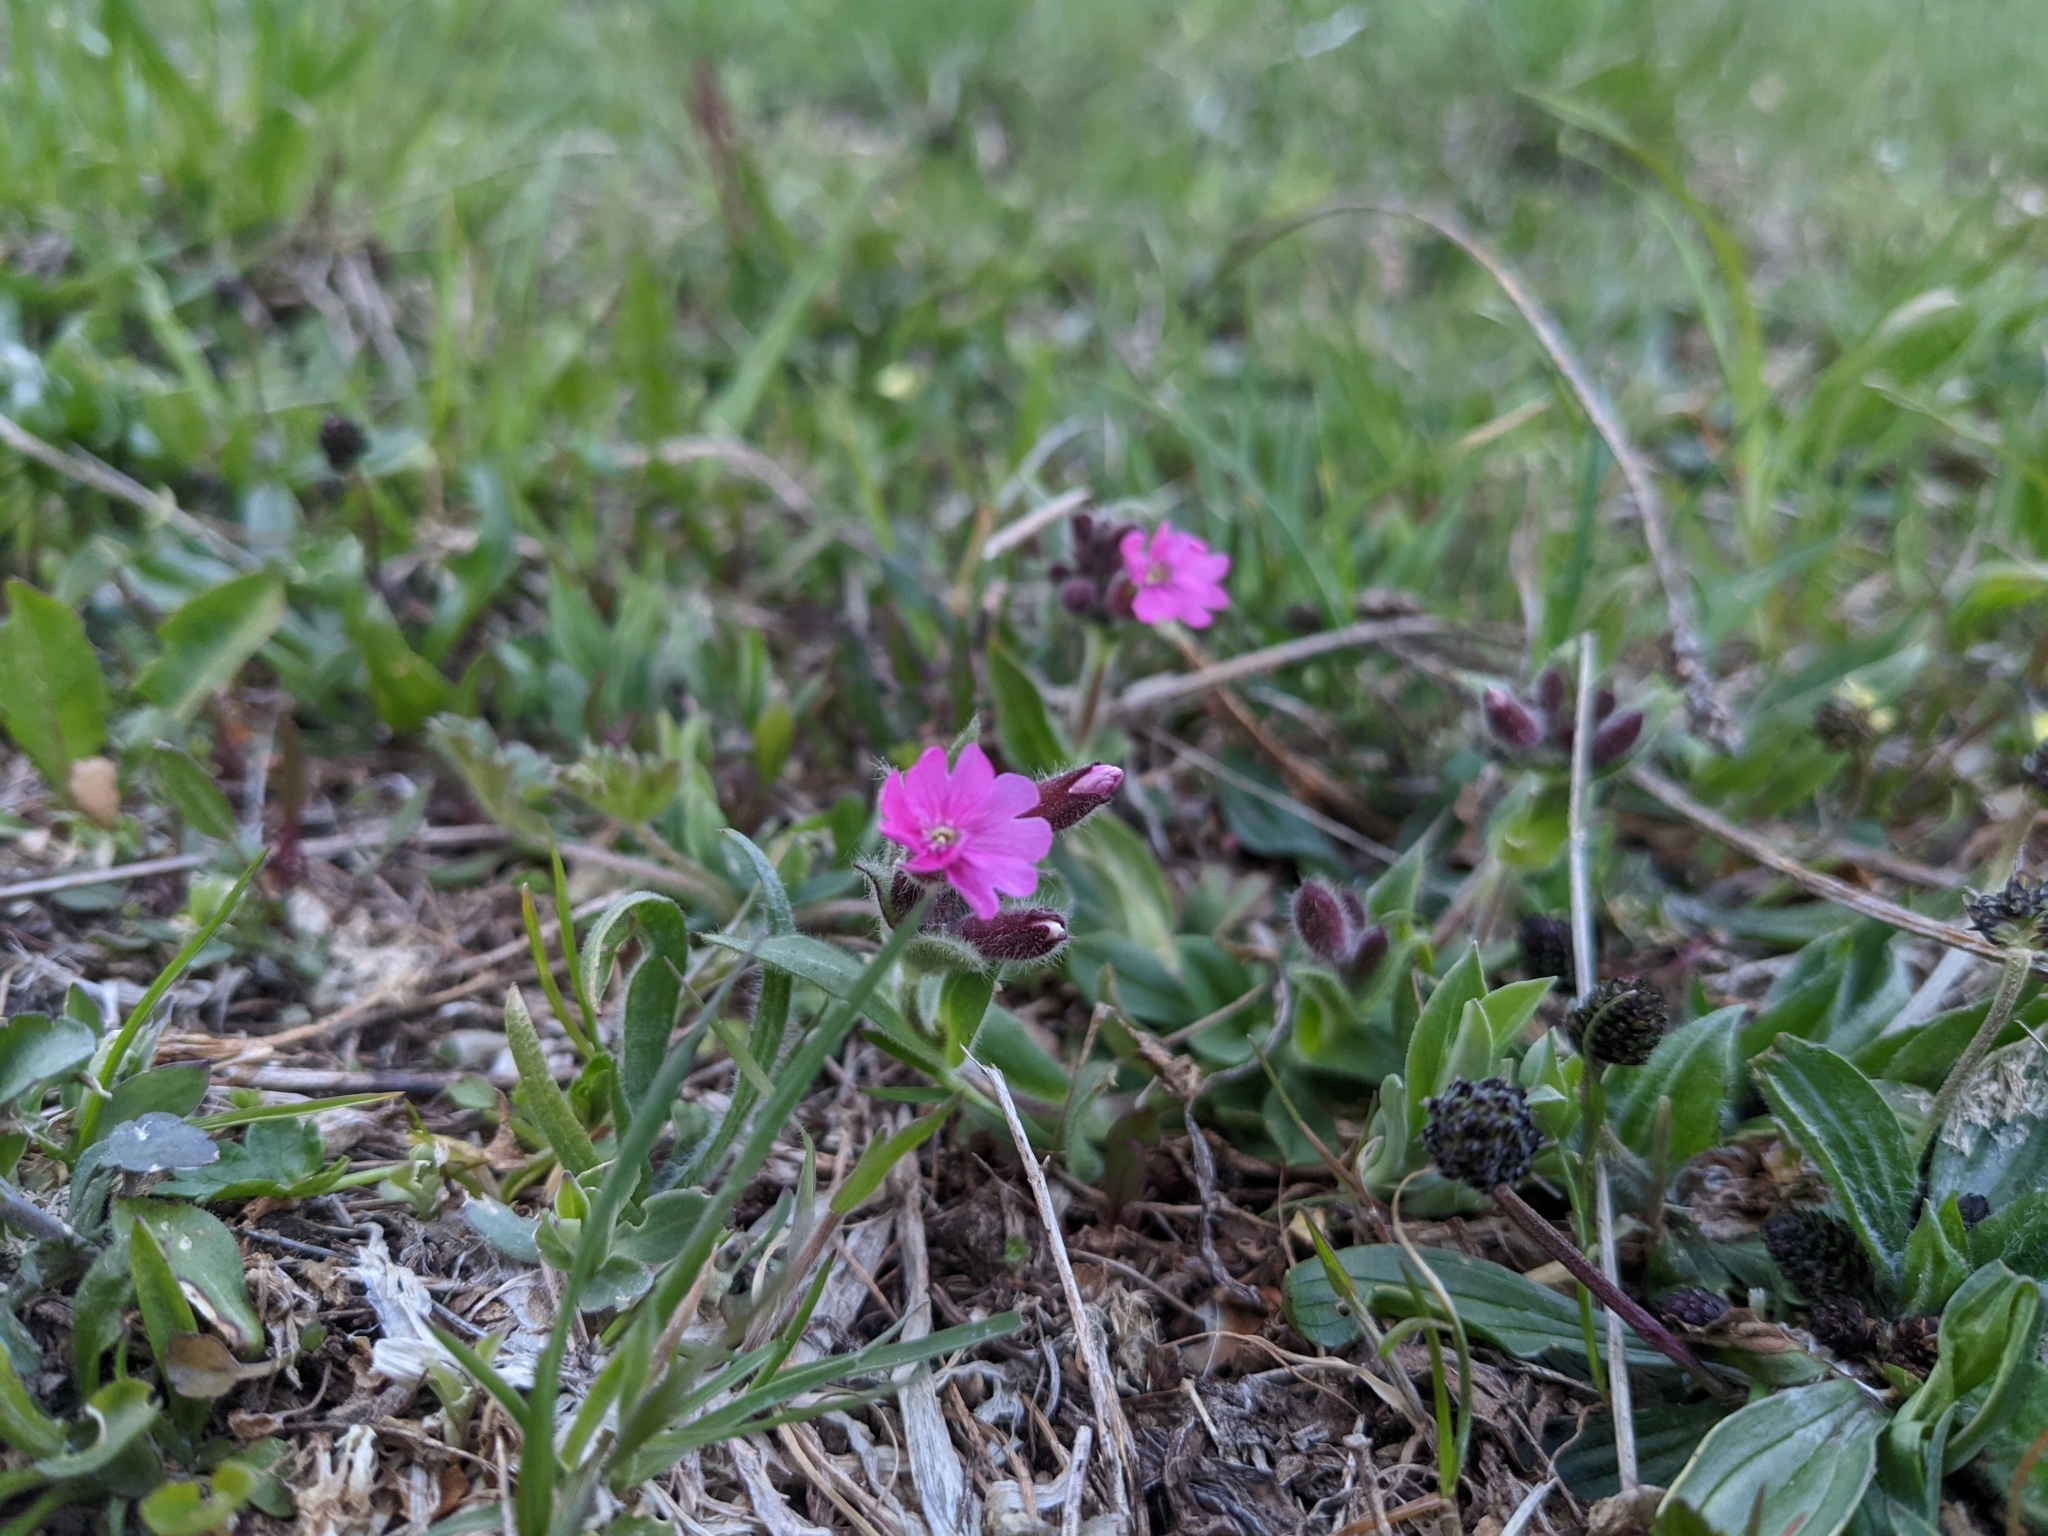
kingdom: Plantae
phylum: Tracheophyta
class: Magnoliopsida
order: Caryophyllales
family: Caryophyllaceae
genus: Silene
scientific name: Silene dioica
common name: Red campion
